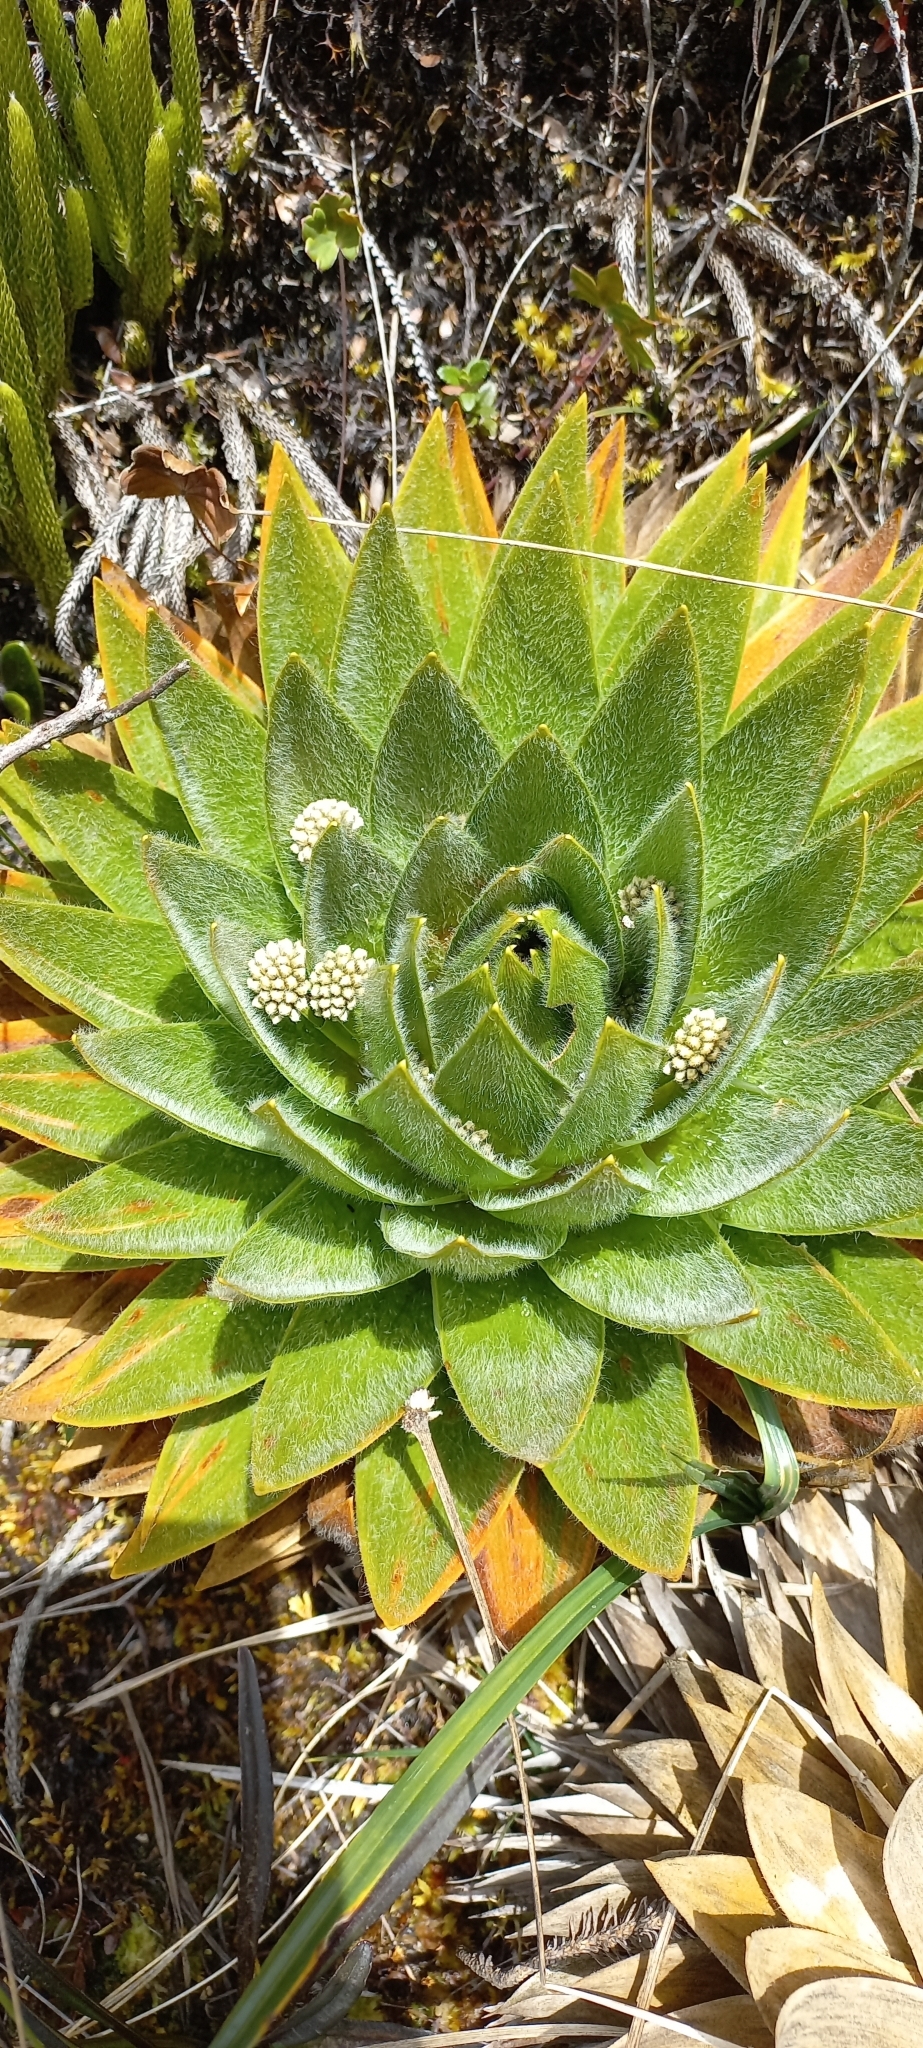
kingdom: Plantae
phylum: Tracheophyta
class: Liliopsida
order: Poales
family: Eriocaulaceae
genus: Paepalanthus
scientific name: Paepalanthus alpinus
